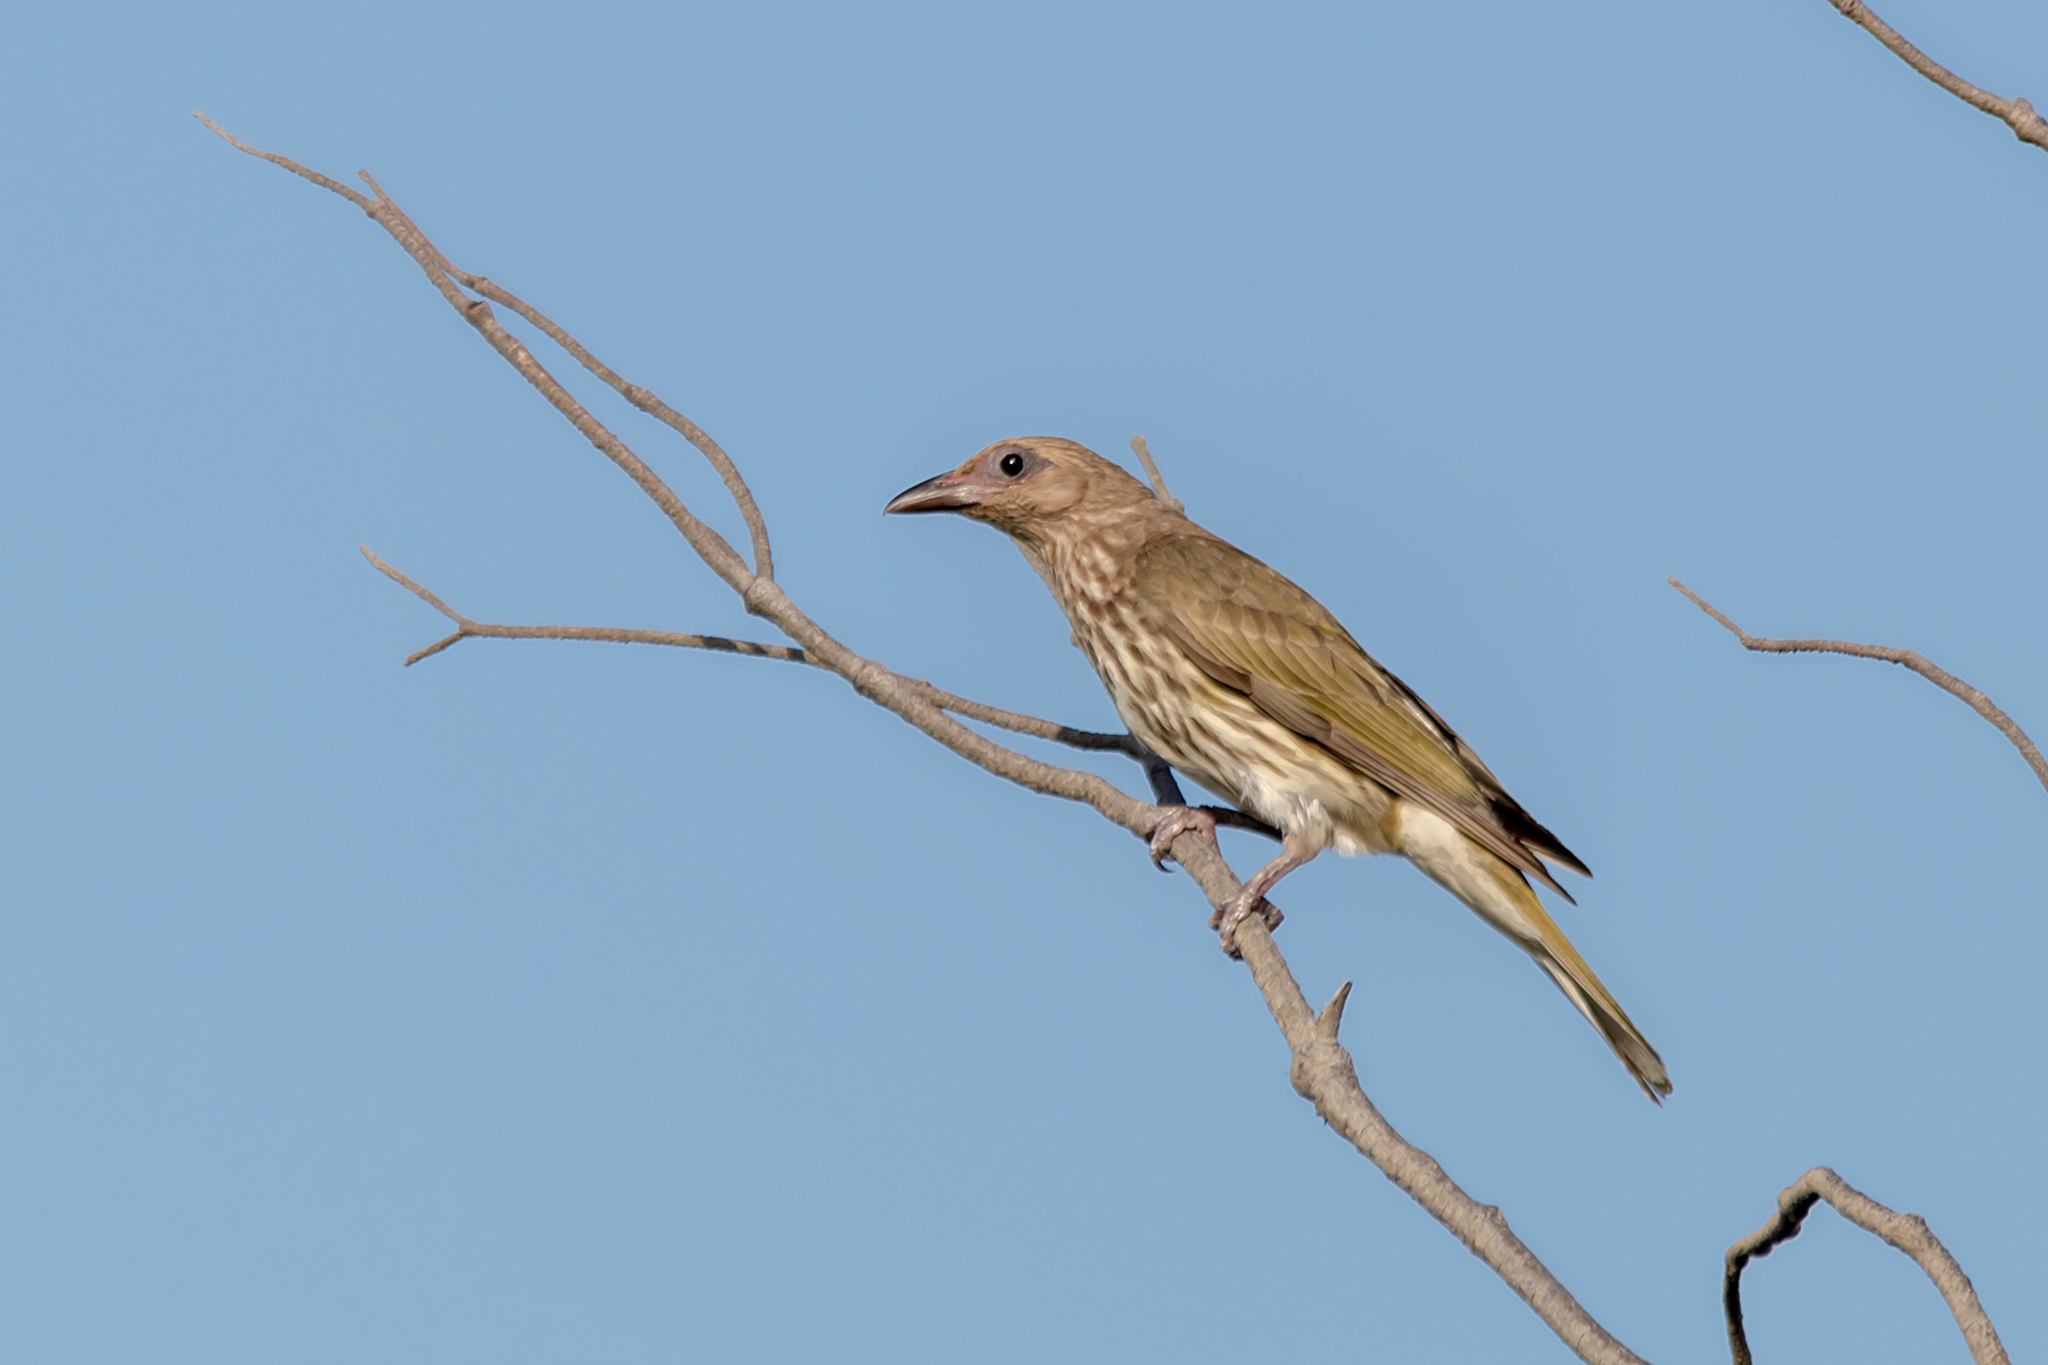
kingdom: Animalia
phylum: Chordata
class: Aves
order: Passeriformes
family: Oriolidae
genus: Sphecotheres
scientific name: Sphecotheres vieilloti
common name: Australasian figbird
